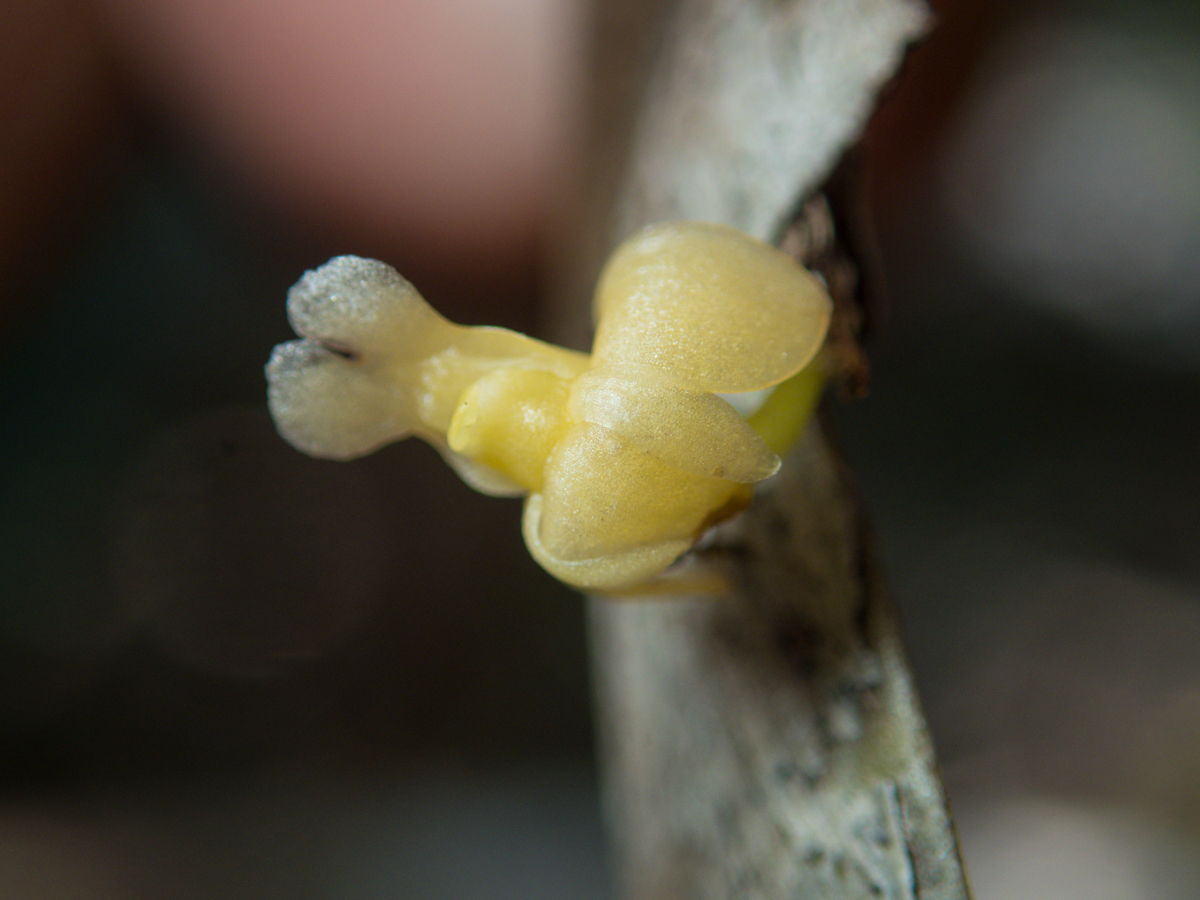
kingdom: Plantae
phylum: Tracheophyta
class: Liliopsida
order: Asparagales
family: Orchidaceae
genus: Dendrobium
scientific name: Dendrobium aloifolium
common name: Aloe-like dendrobium
